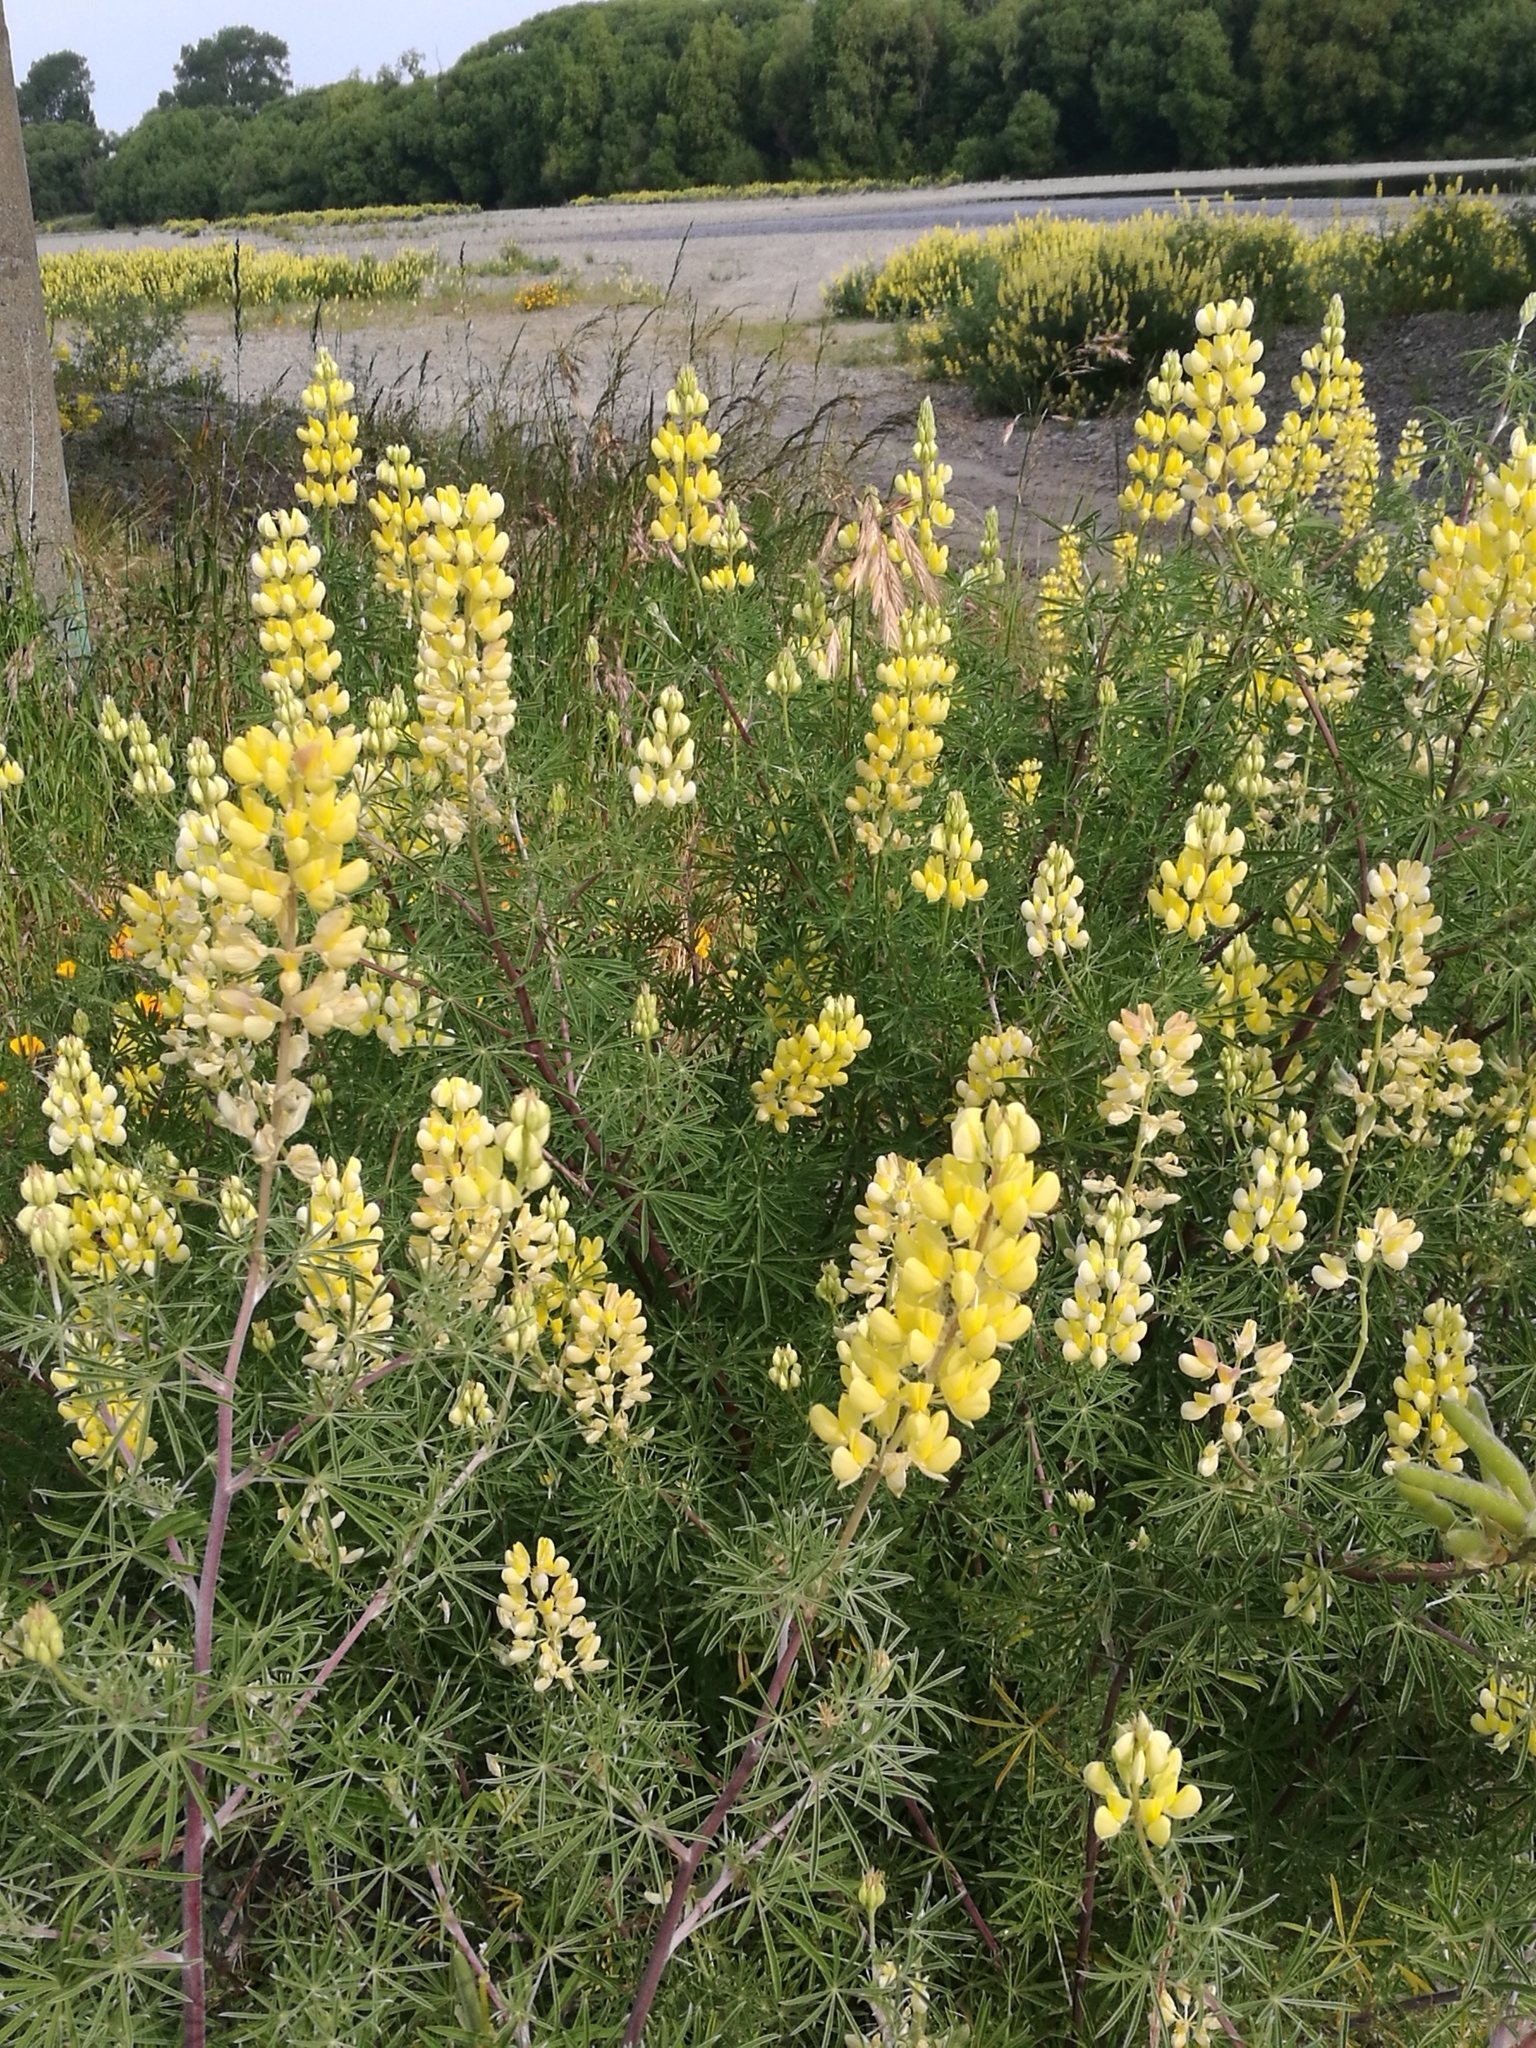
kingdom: Plantae
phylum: Tracheophyta
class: Magnoliopsida
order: Fabales
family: Fabaceae
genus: Lupinus
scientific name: Lupinus arboreus
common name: Yellow bush lupine
